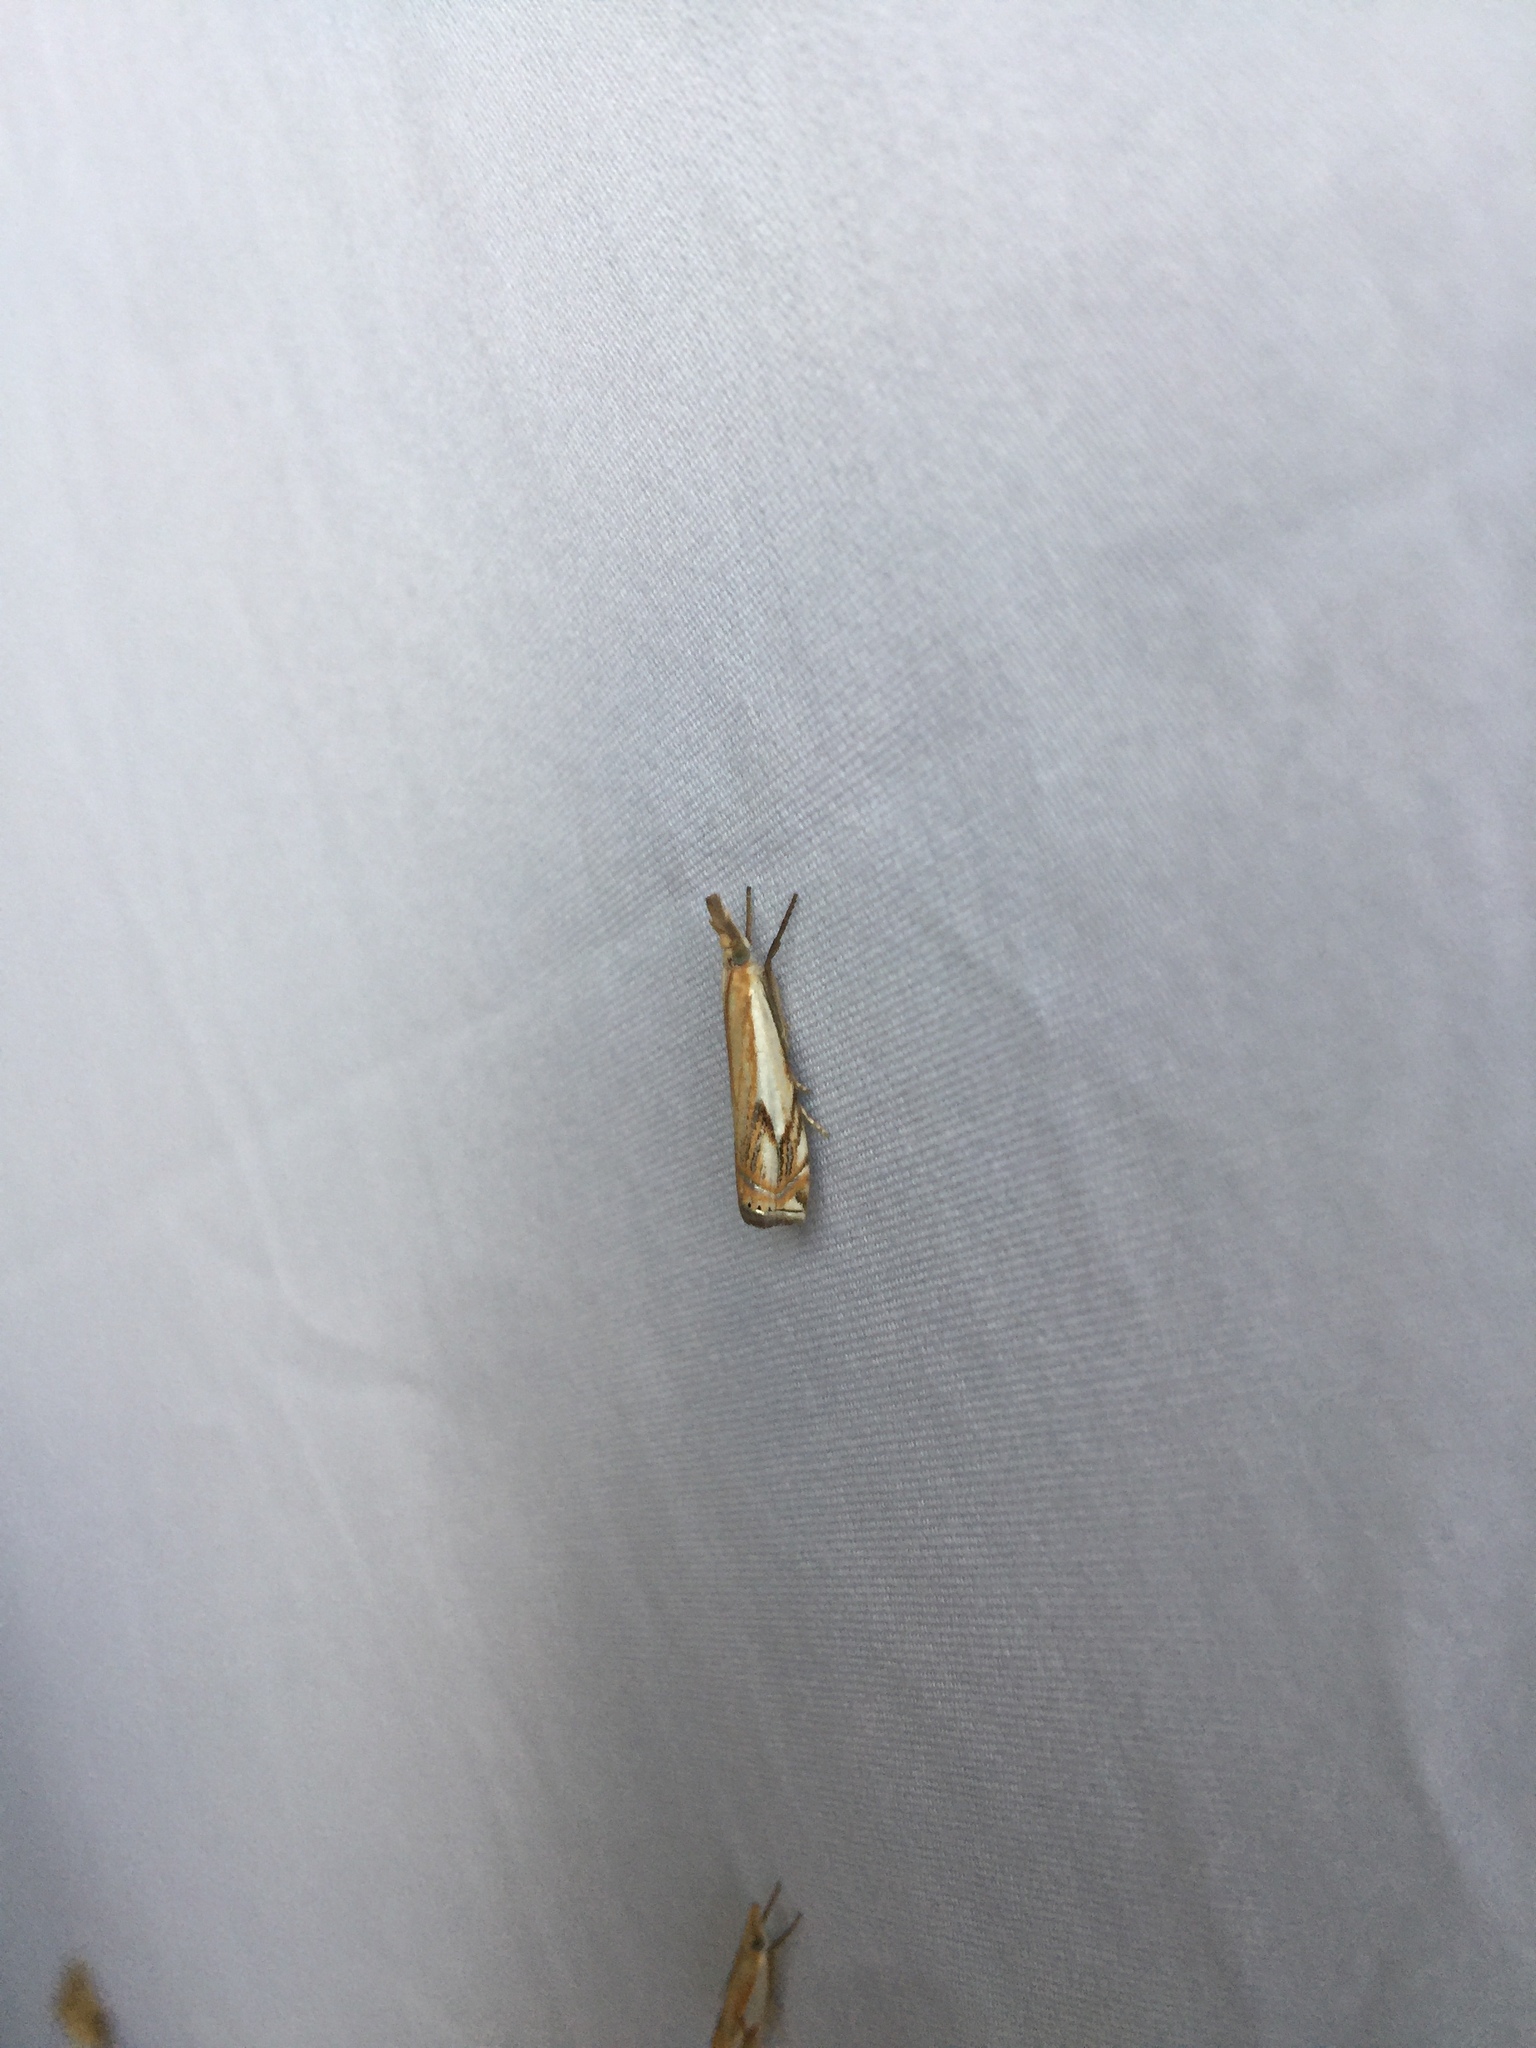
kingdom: Animalia
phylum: Arthropoda
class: Insecta
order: Lepidoptera
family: Crambidae
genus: Crambus
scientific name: Crambus agitatellus
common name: Double-banded grass-veneer
